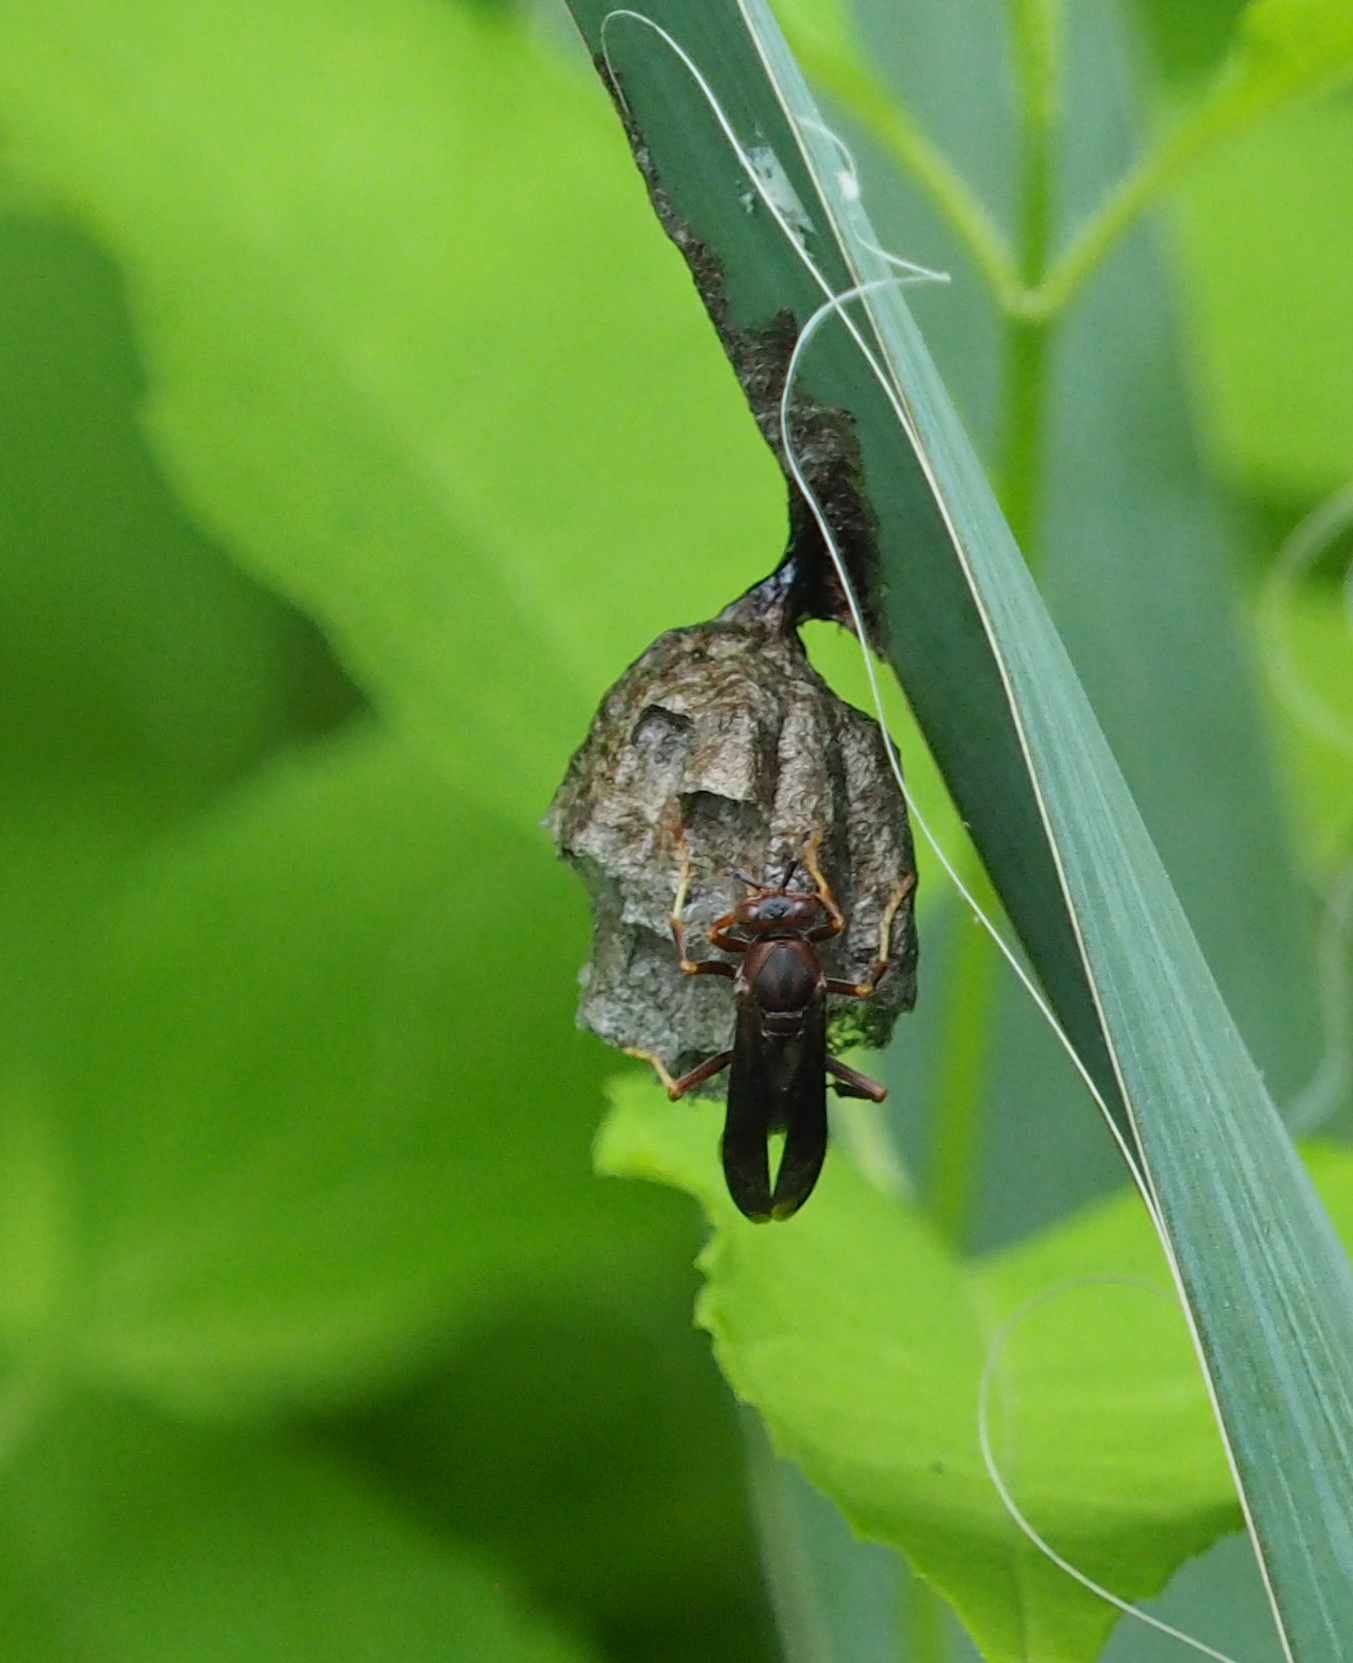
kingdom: Animalia
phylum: Arthropoda
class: Insecta
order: Hymenoptera
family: Vespidae
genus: Fuscopolistes
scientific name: Fuscopolistes
